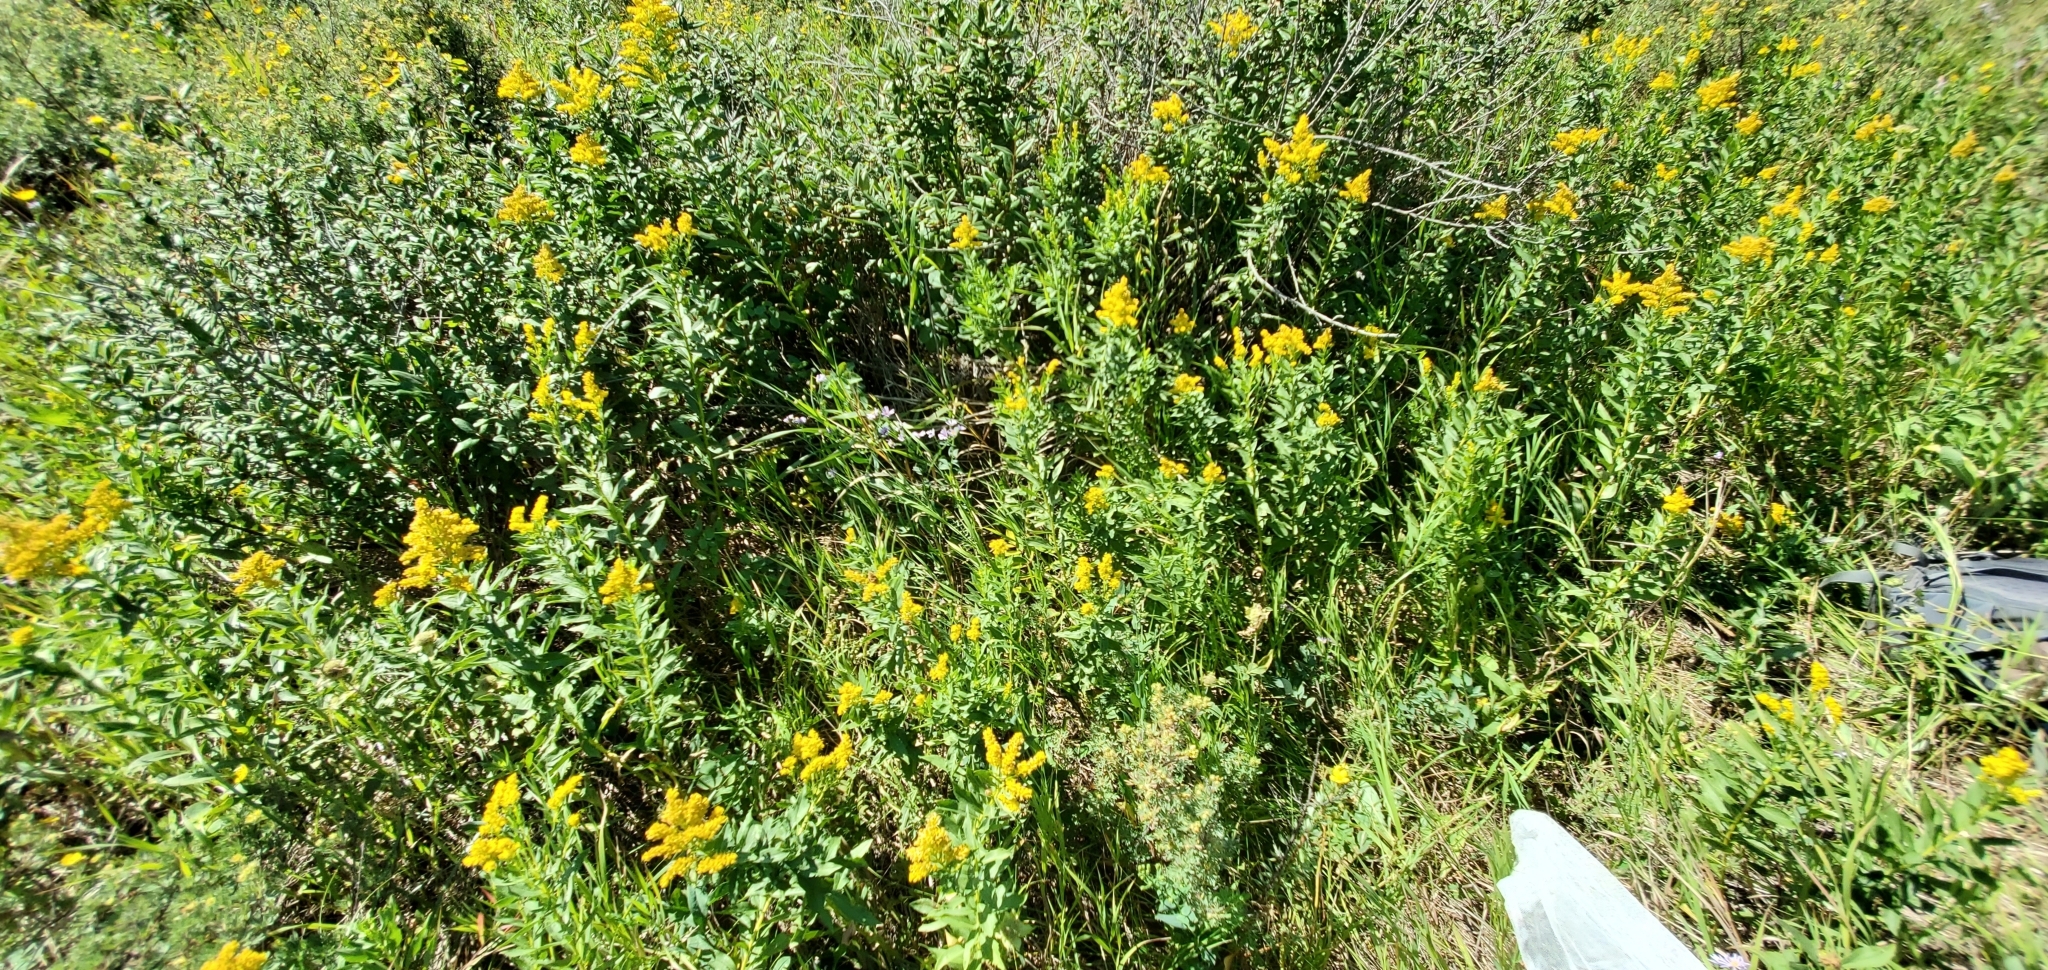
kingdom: Plantae
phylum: Tracheophyta
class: Magnoliopsida
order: Asterales
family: Asteraceae
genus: Solidago
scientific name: Solidago missouriensis
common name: Prairie goldenrod
